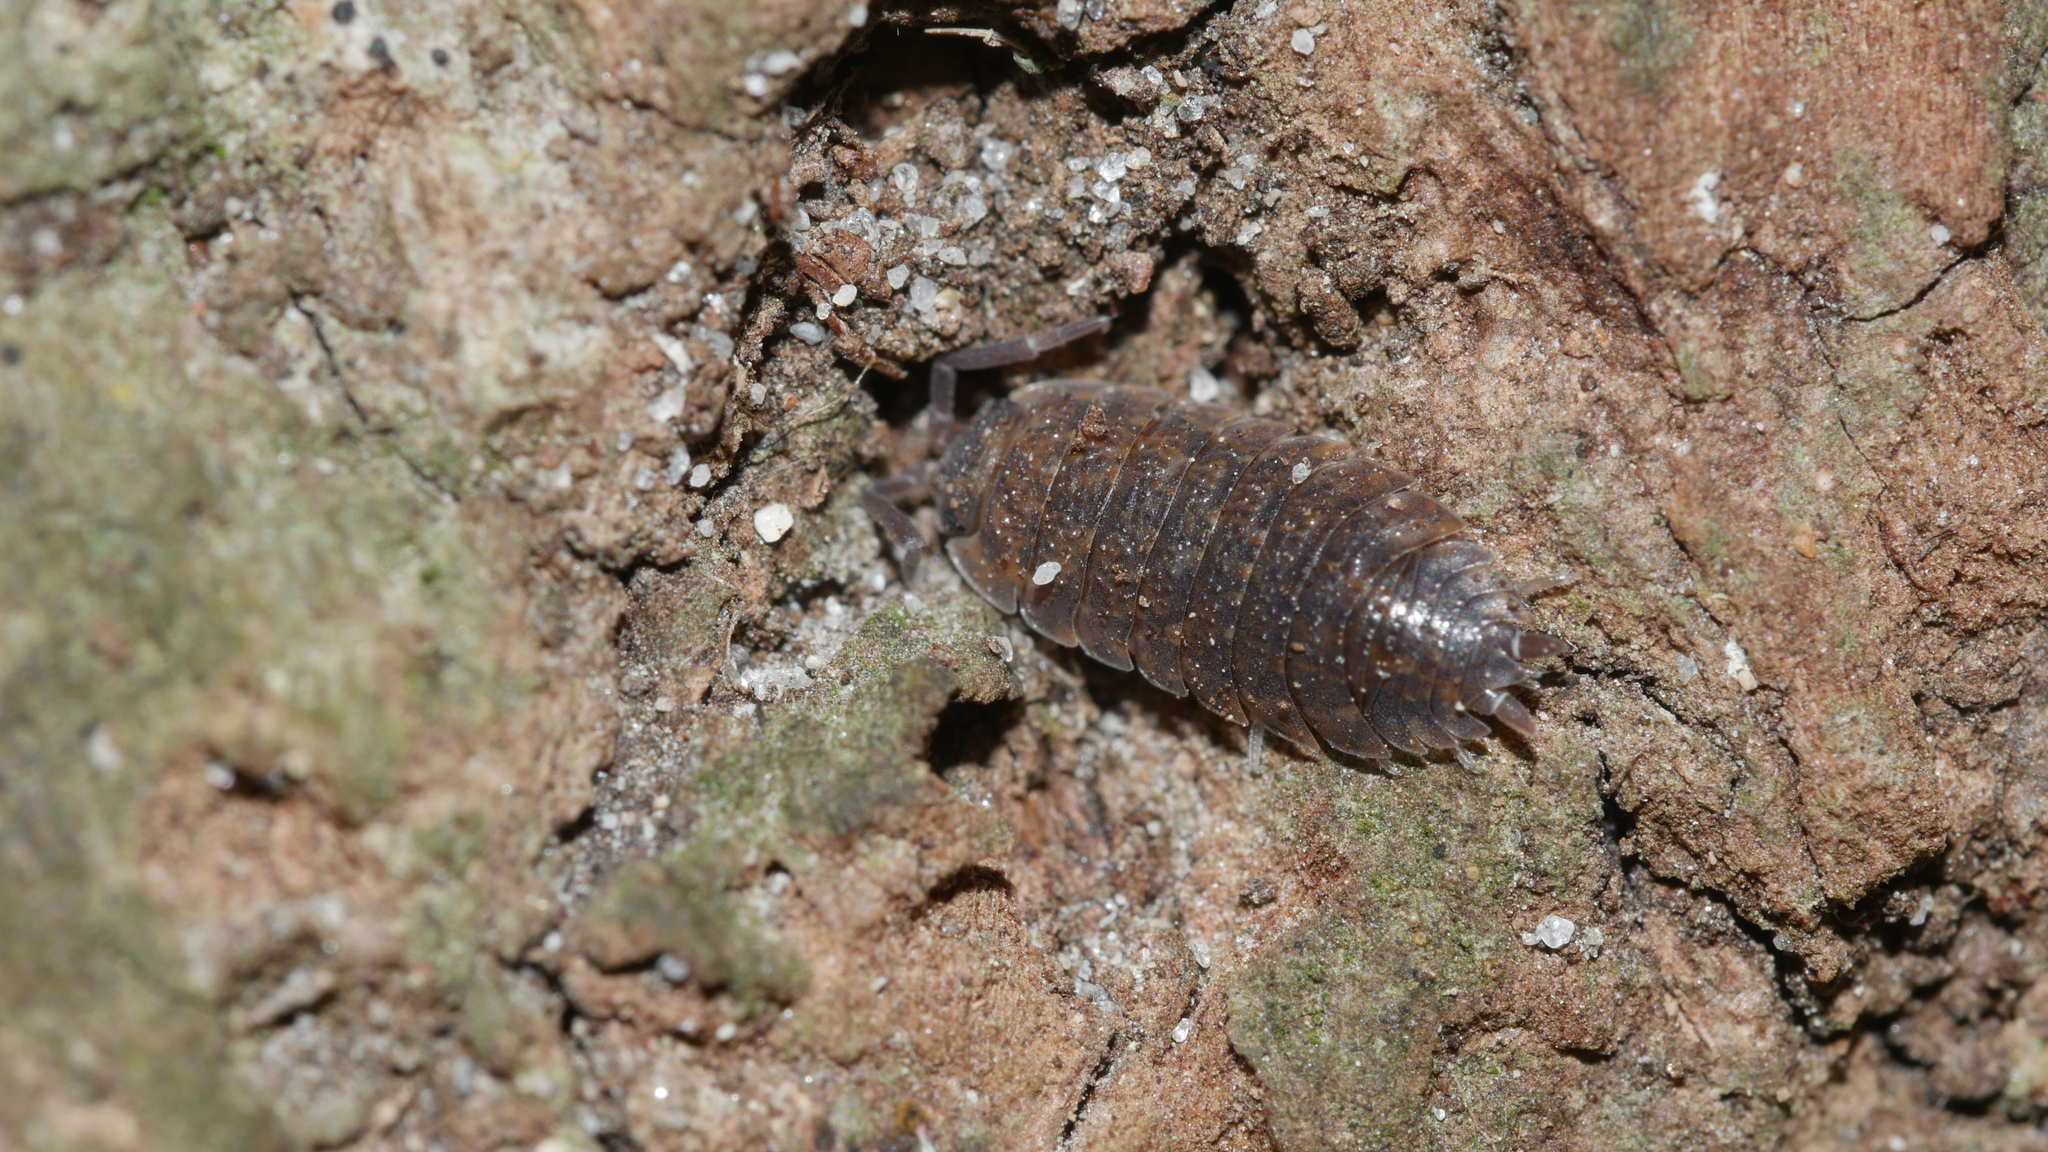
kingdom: Animalia
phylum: Arthropoda
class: Malacostraca
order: Isopoda
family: Porcellionidae
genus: Porcellio
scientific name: Porcellio scaber
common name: Common rough woodlouse
